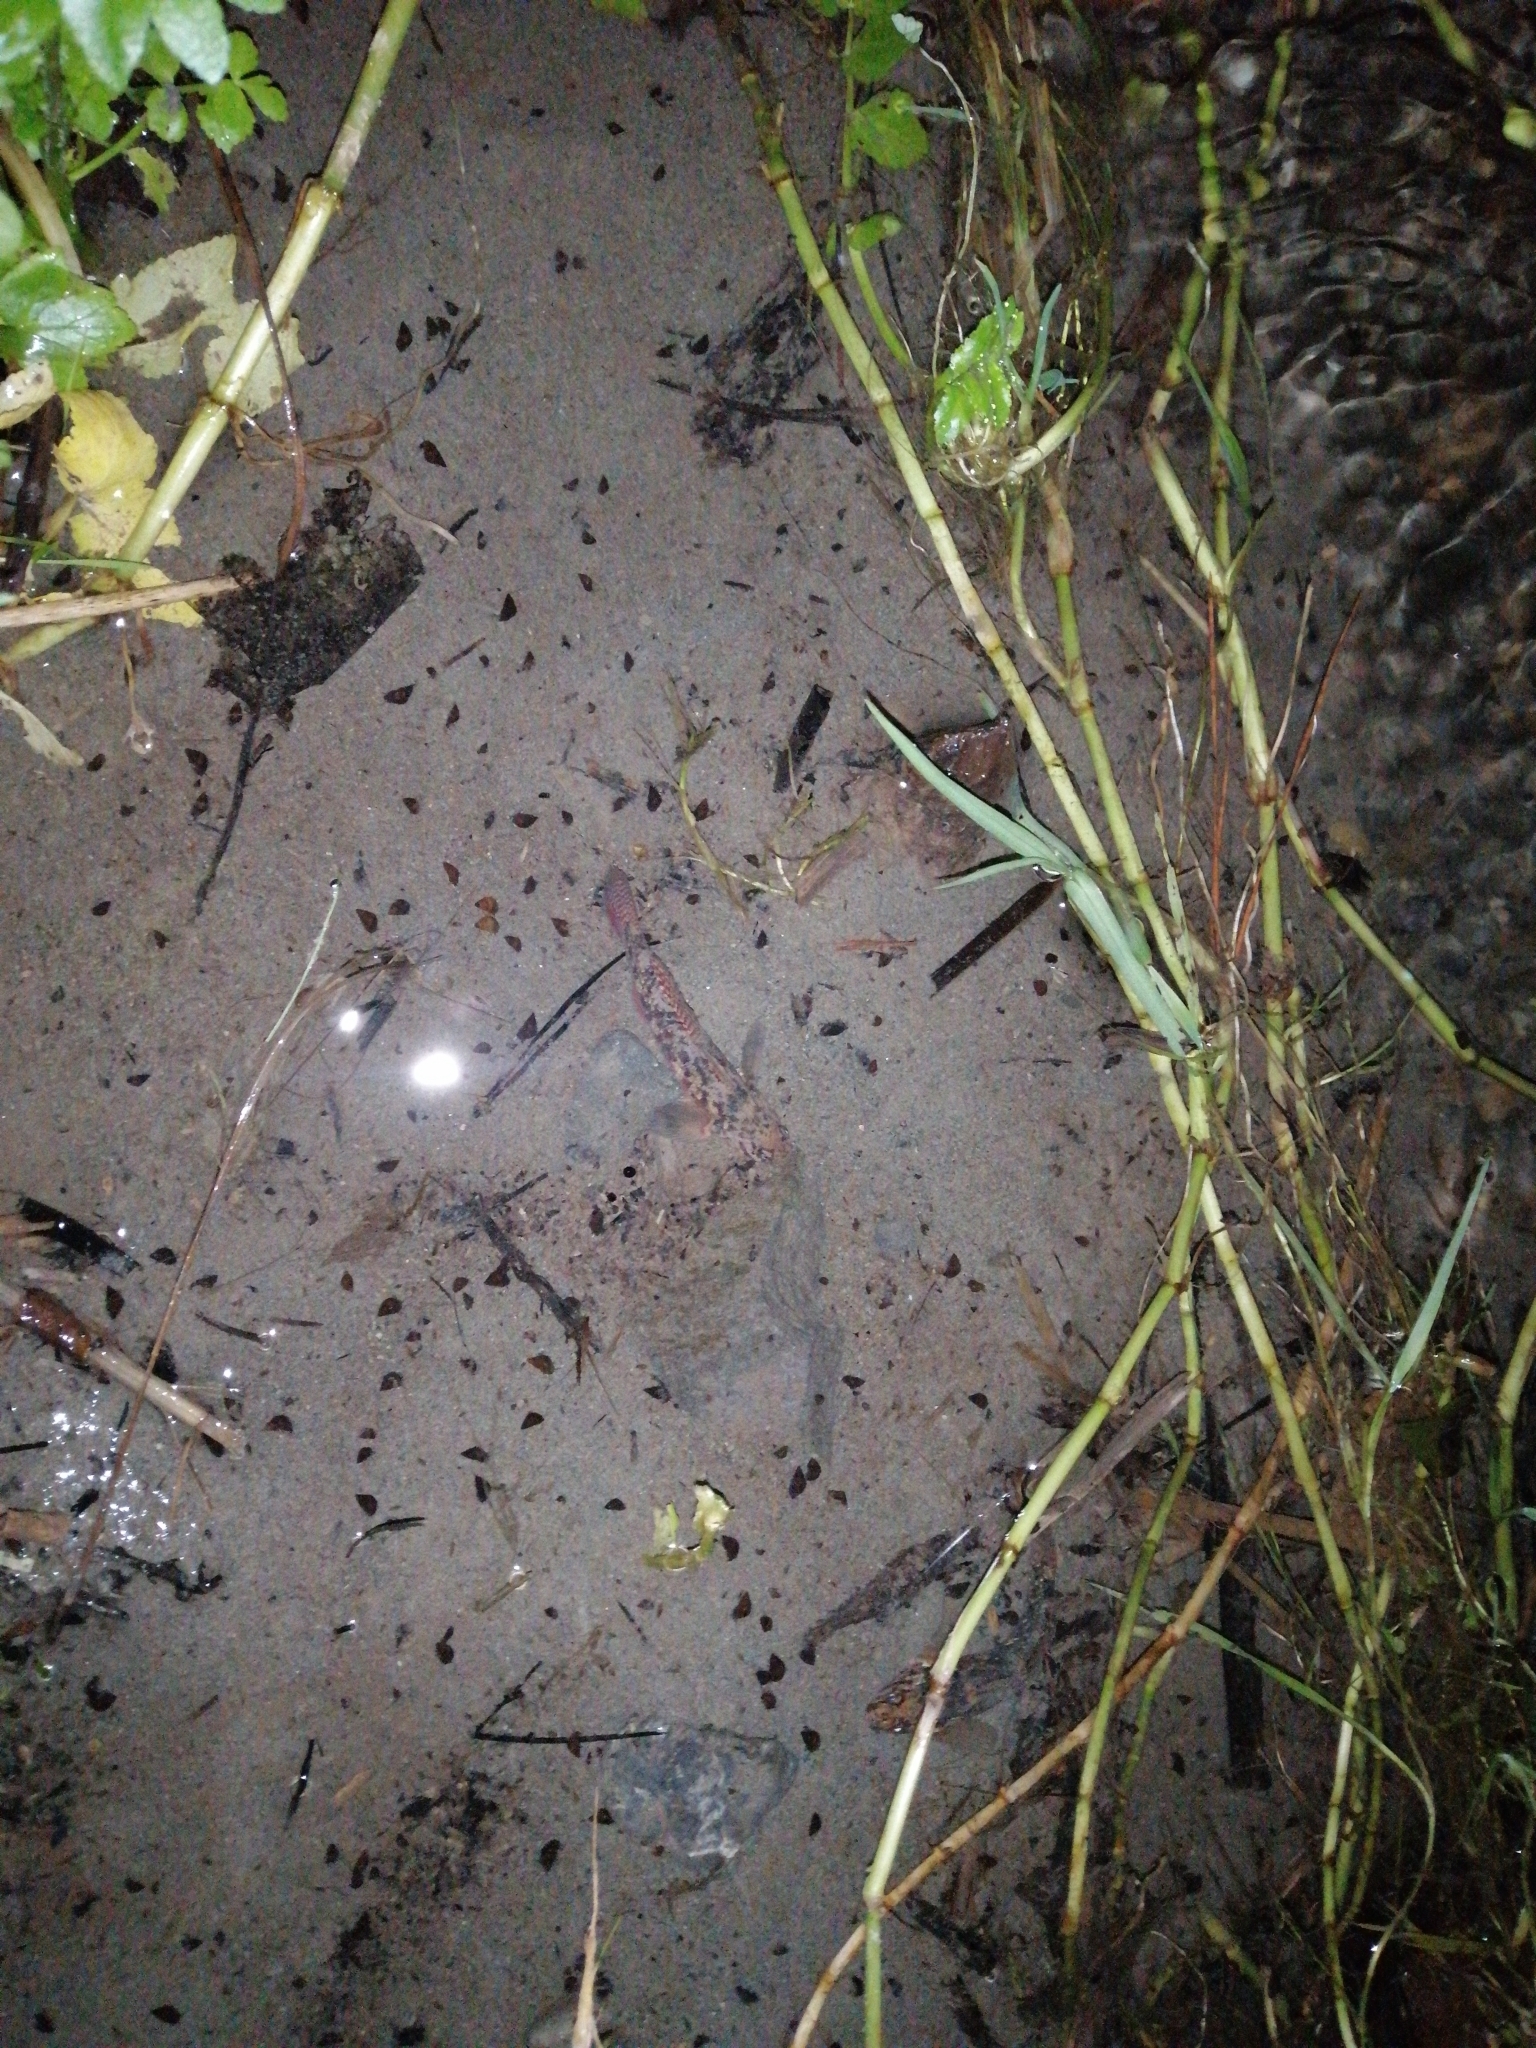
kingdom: Animalia
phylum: Chordata
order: Perciformes
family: Eleotridae
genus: Gobiomorphus
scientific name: Gobiomorphus huttoni
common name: Redfin bully
